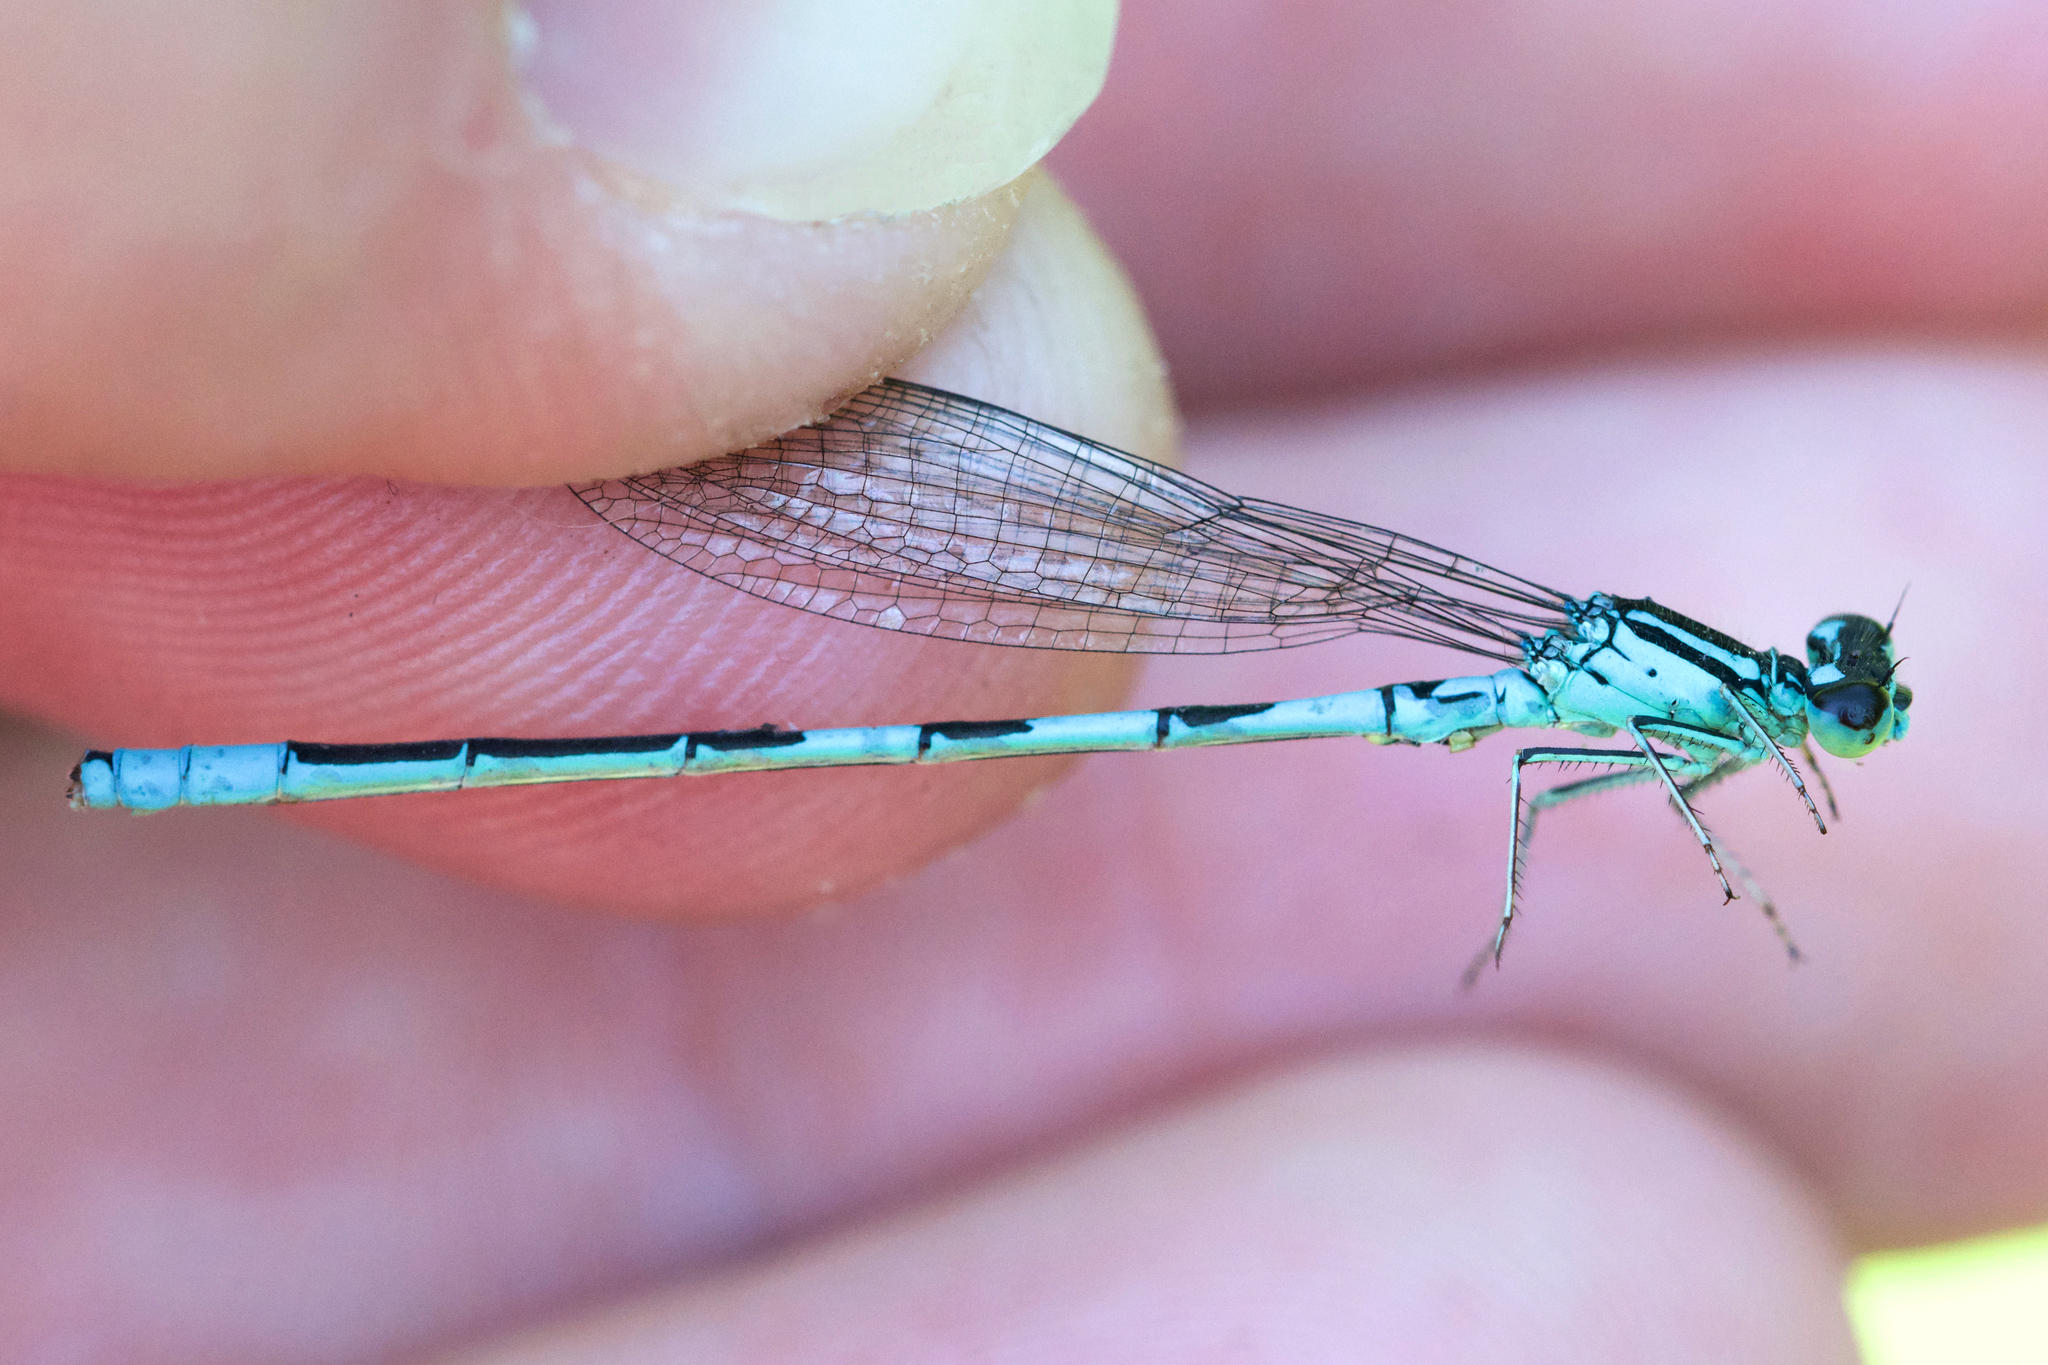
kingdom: Animalia
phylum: Arthropoda
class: Insecta
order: Odonata
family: Coenagrionidae
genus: Coenagrion
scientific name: Coenagrion resolutum
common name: Taiga bluet
